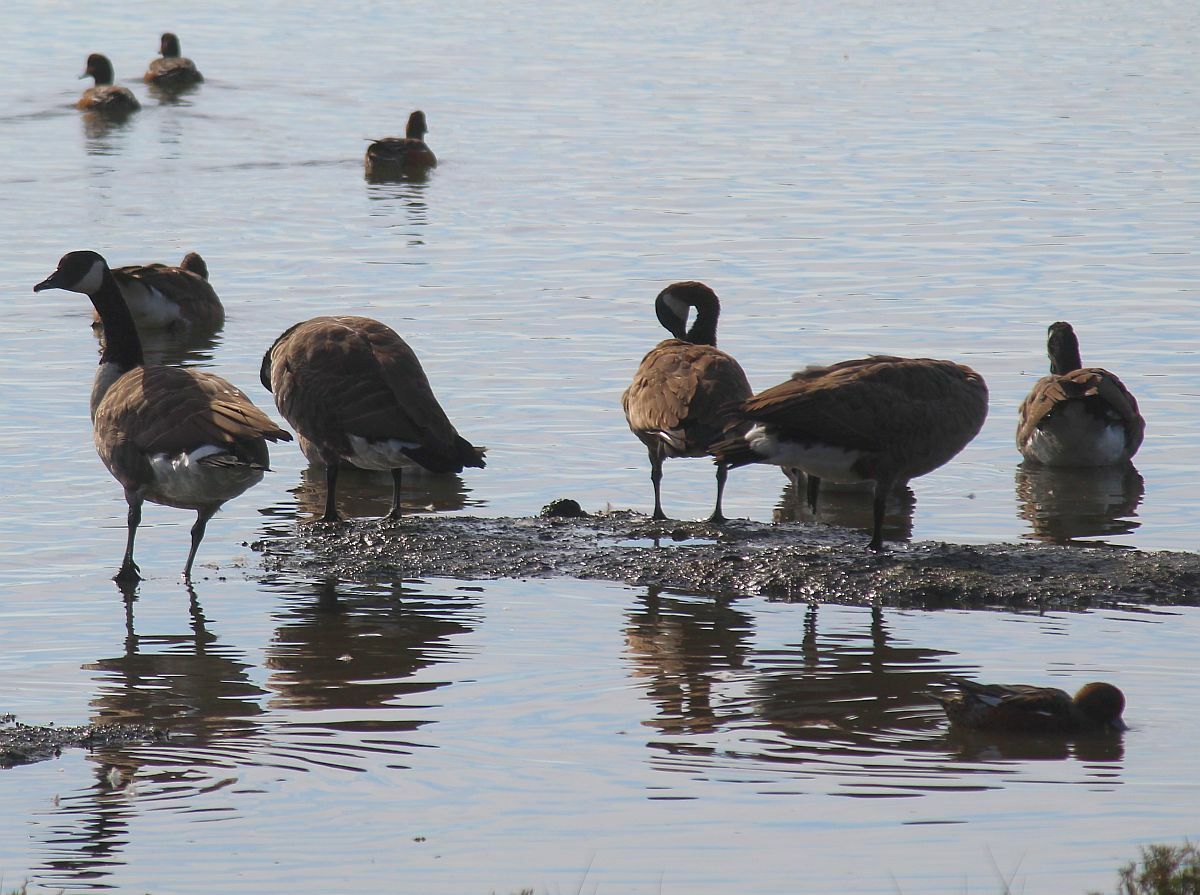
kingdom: Animalia
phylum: Chordata
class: Aves
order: Anseriformes
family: Anatidae
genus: Branta
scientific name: Branta canadensis
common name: Canada goose
